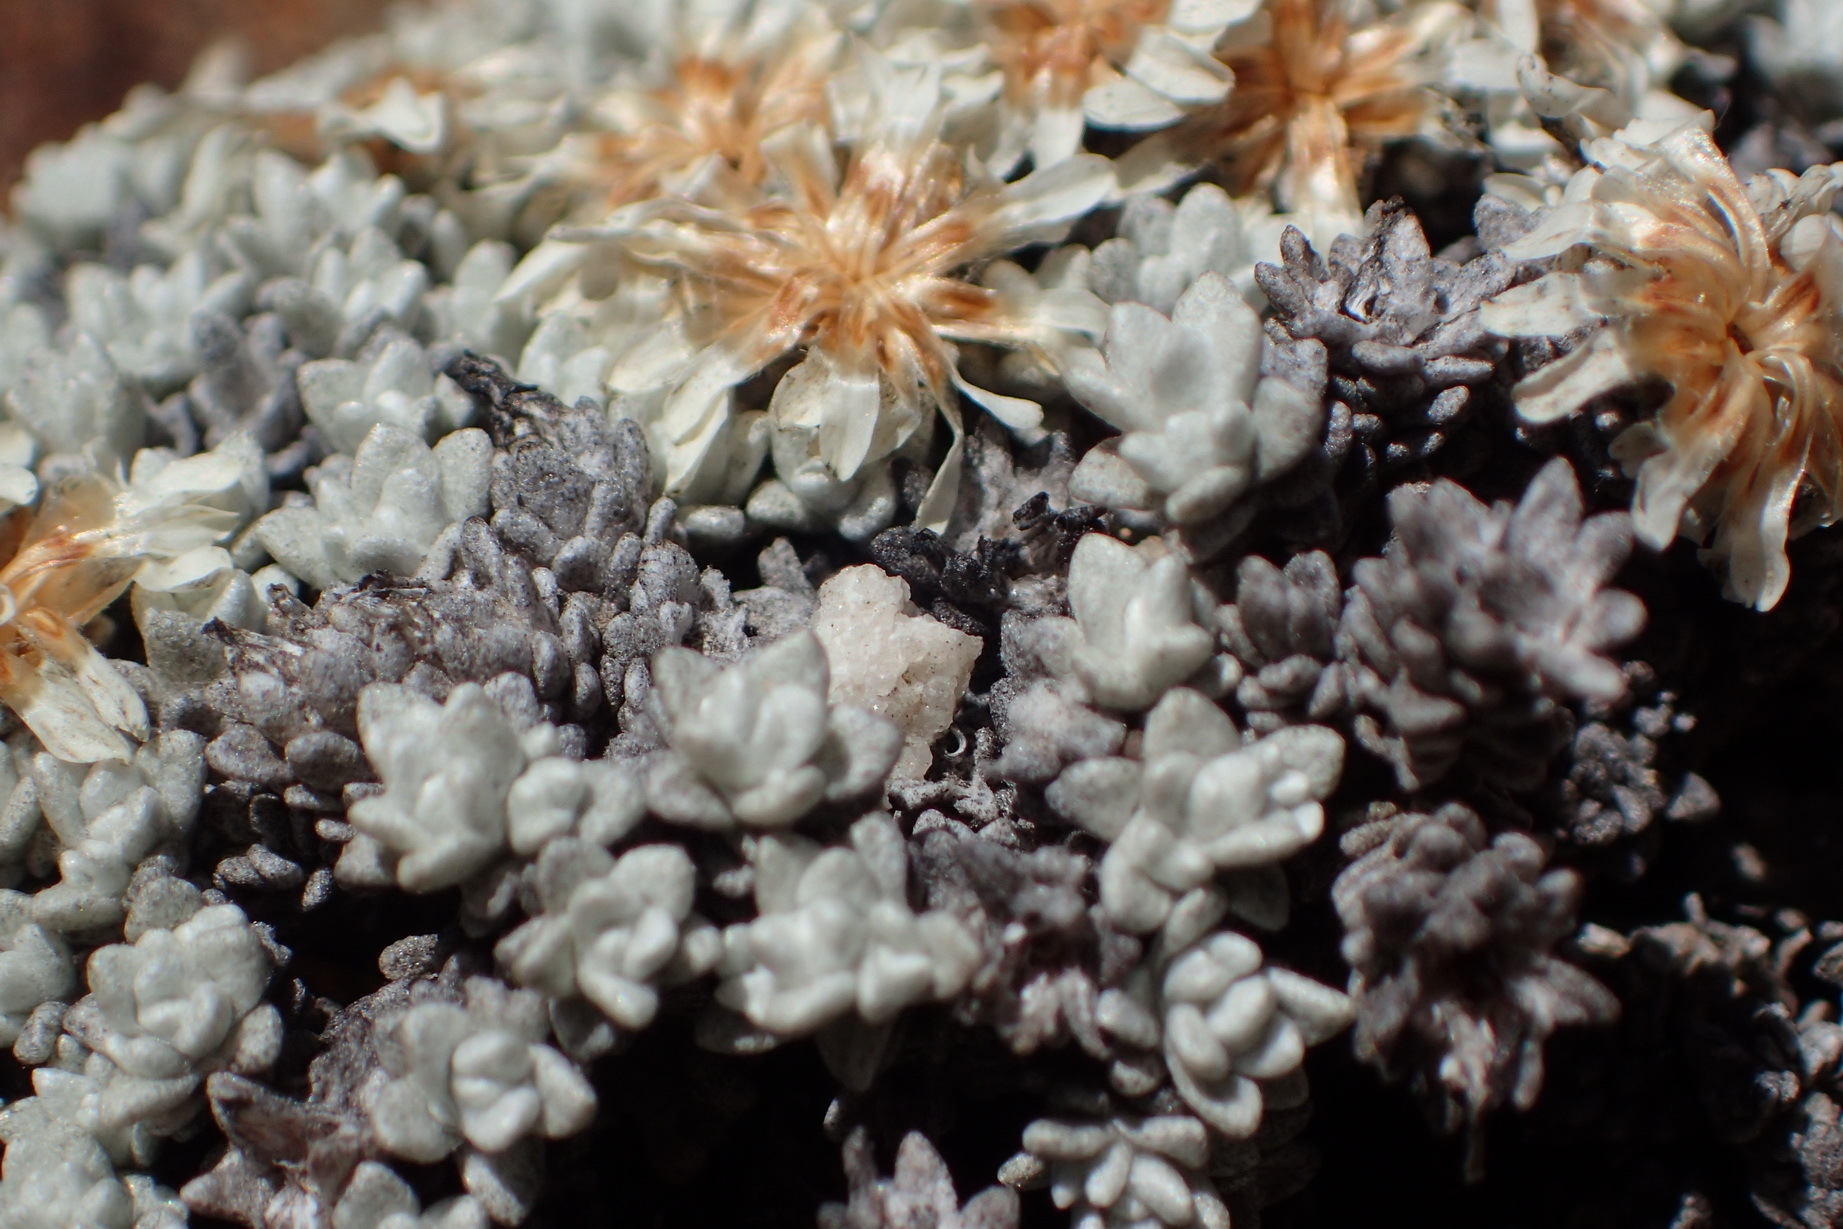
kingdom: Plantae
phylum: Tracheophyta
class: Magnoliopsida
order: Asterales
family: Asteraceae
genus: Helichrysum
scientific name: Helichrysum saxicola
